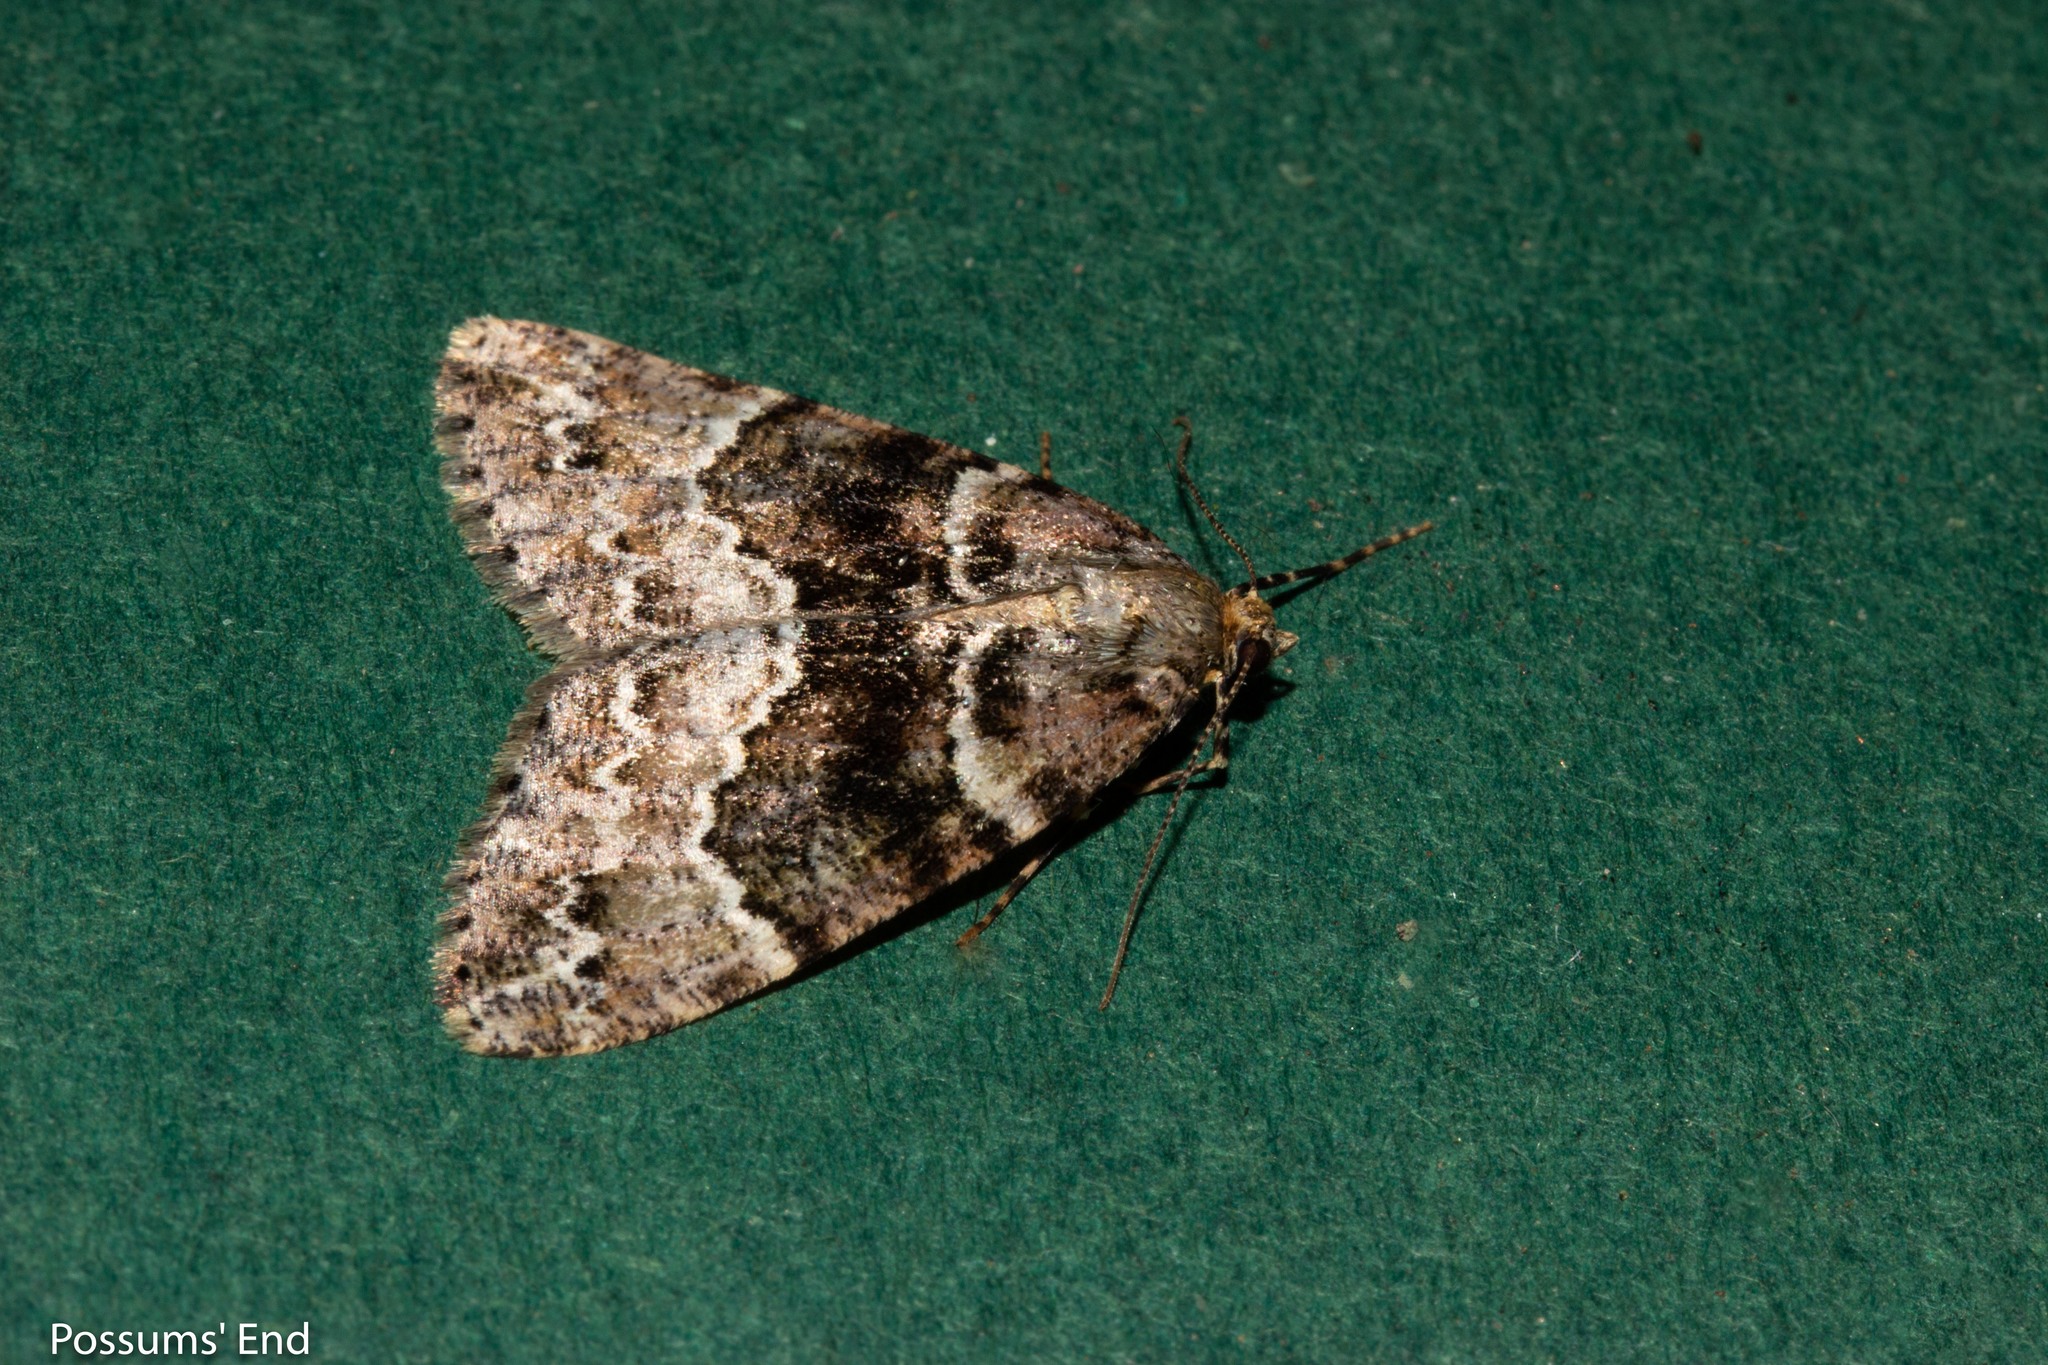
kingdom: Animalia
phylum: Arthropoda
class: Insecta
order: Lepidoptera
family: Geometridae
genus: Pseudocoremia
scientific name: Pseudocoremia productata
